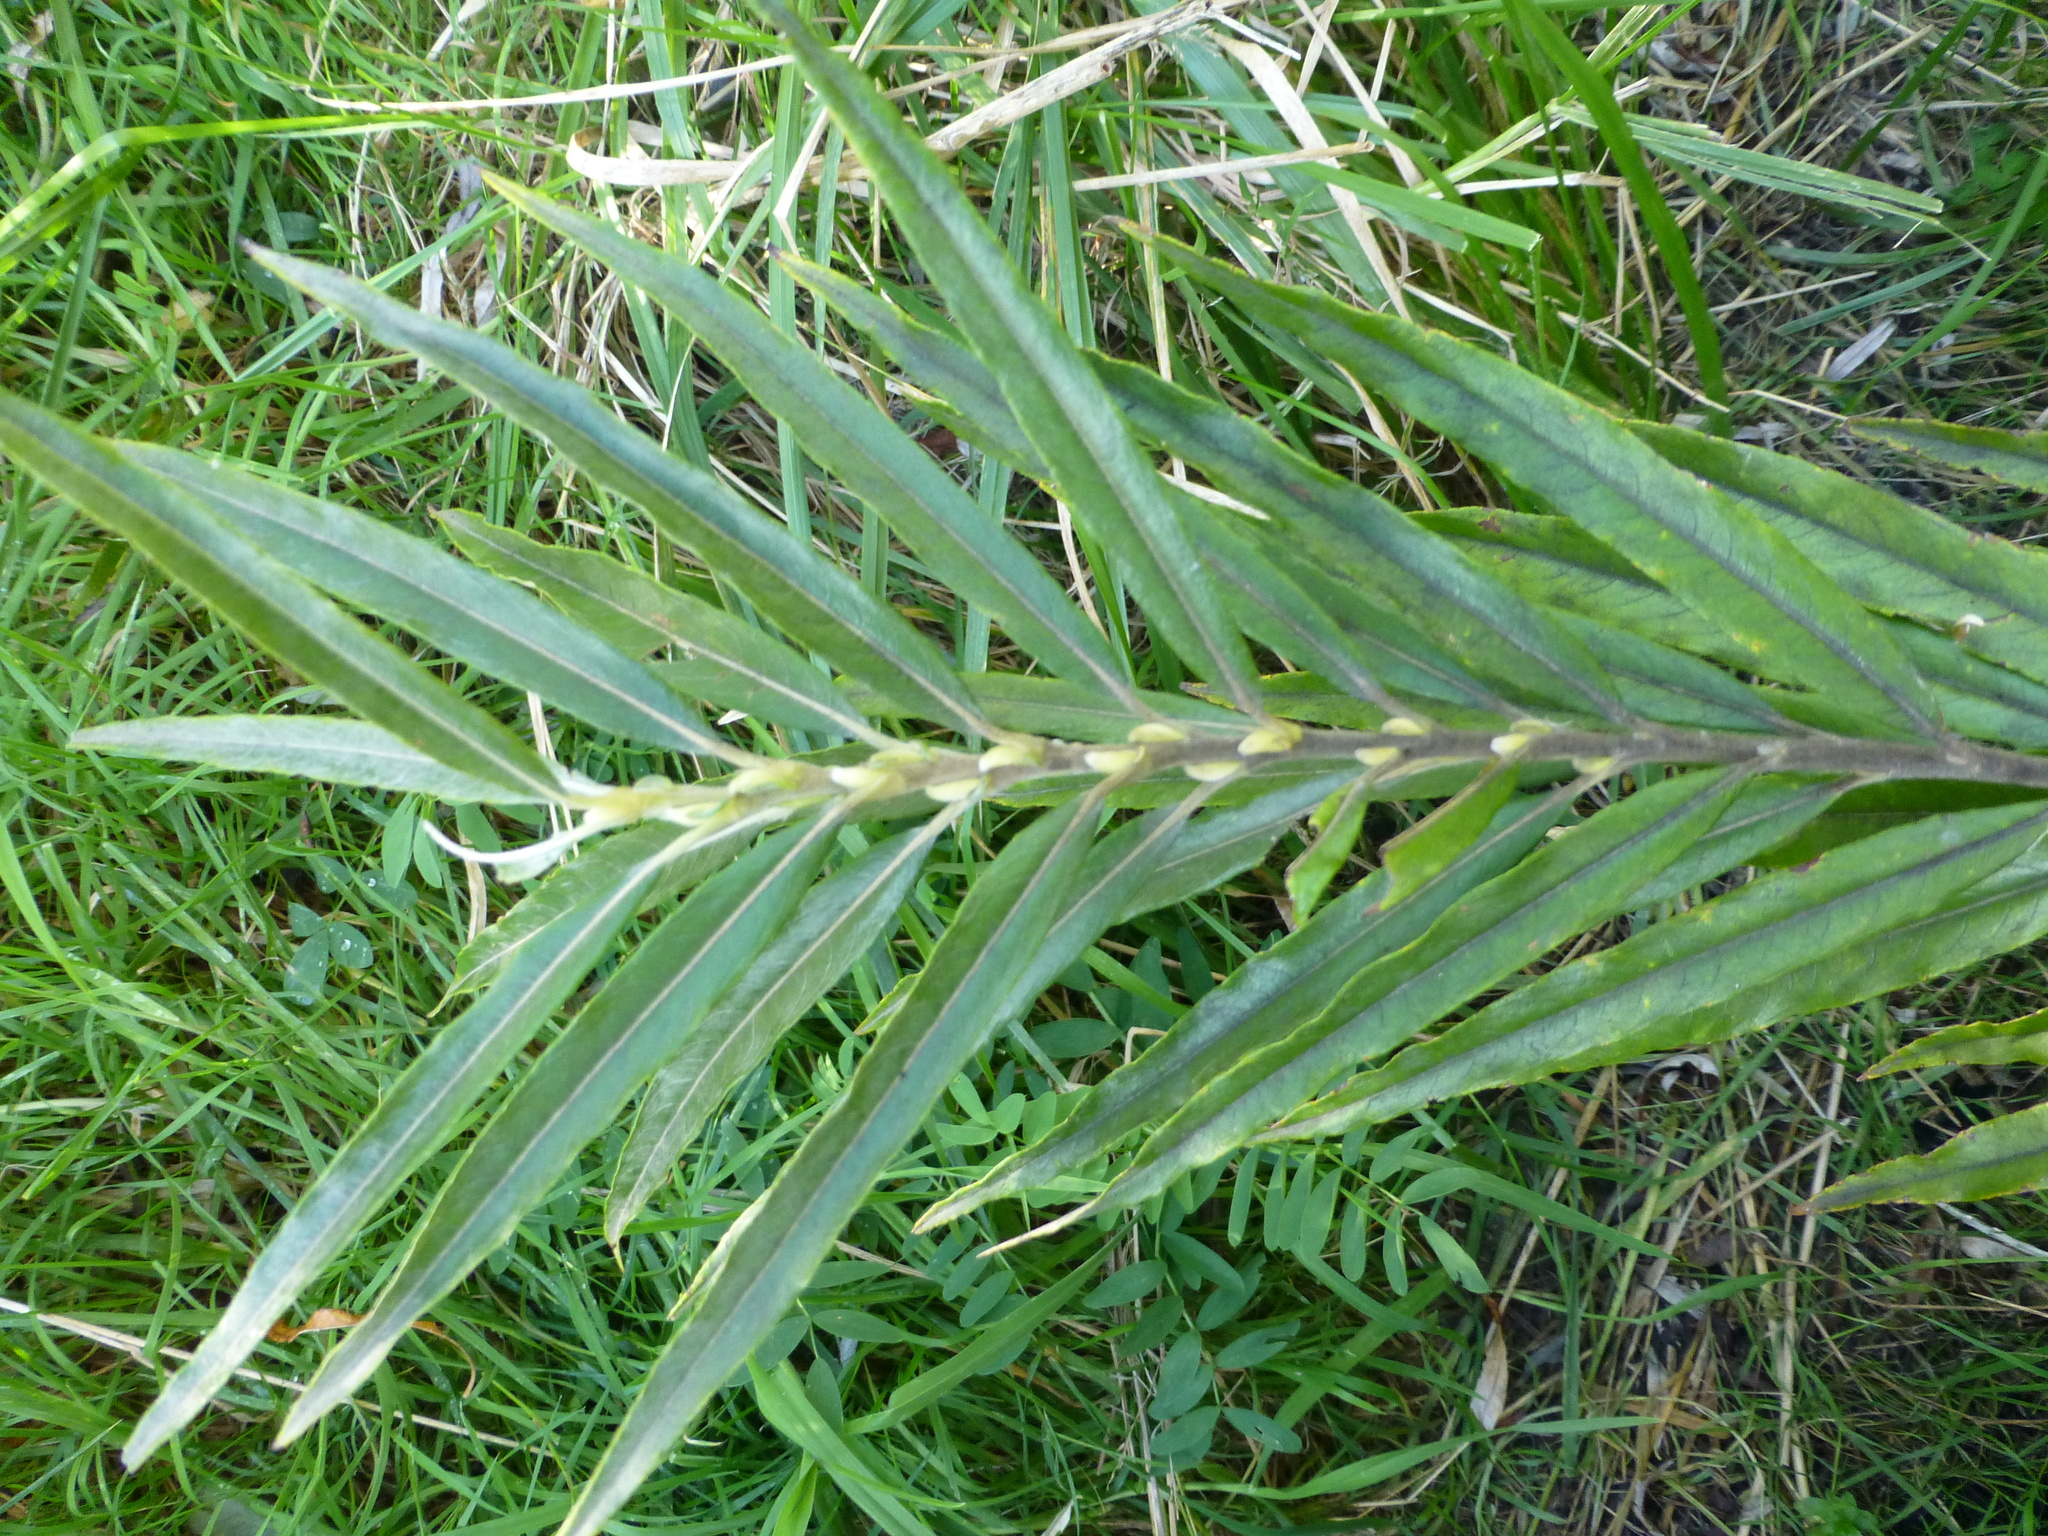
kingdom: Plantae
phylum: Tracheophyta
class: Magnoliopsida
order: Malpighiales
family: Salicaceae
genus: Salix
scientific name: Salix viminalis
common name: Osier
